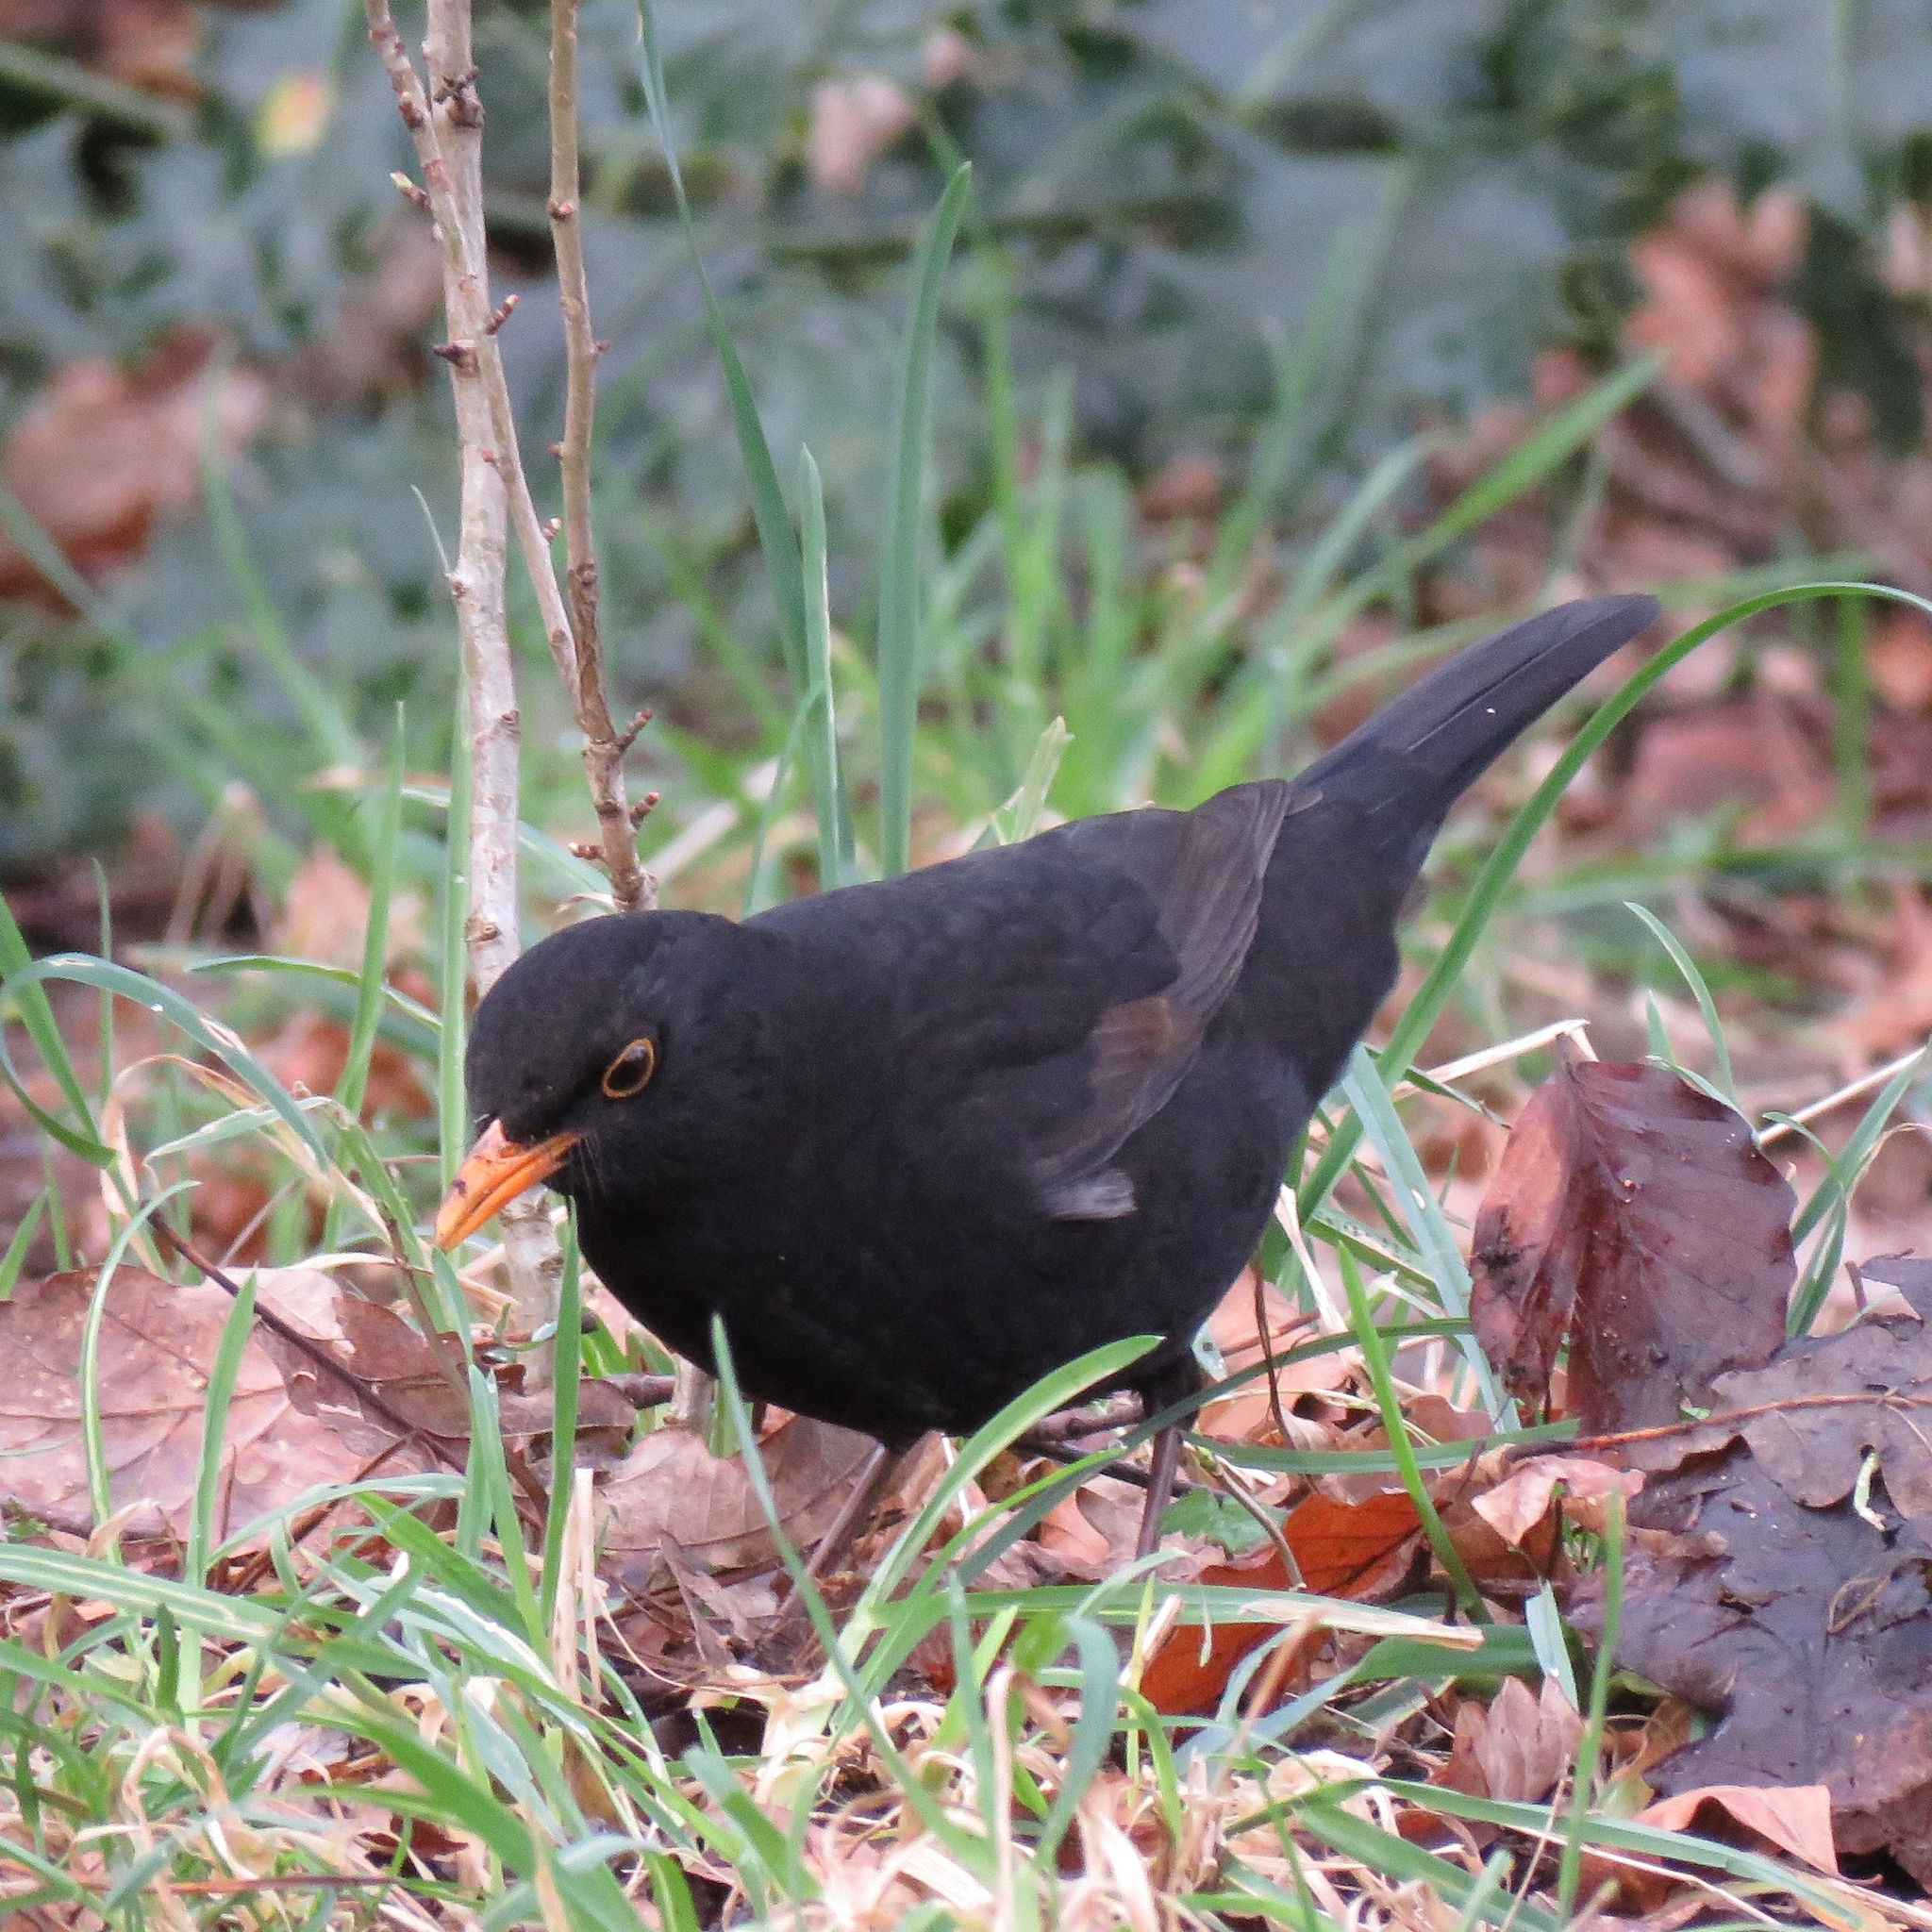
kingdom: Animalia
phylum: Chordata
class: Aves
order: Passeriformes
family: Turdidae
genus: Turdus
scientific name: Turdus merula
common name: Common blackbird
